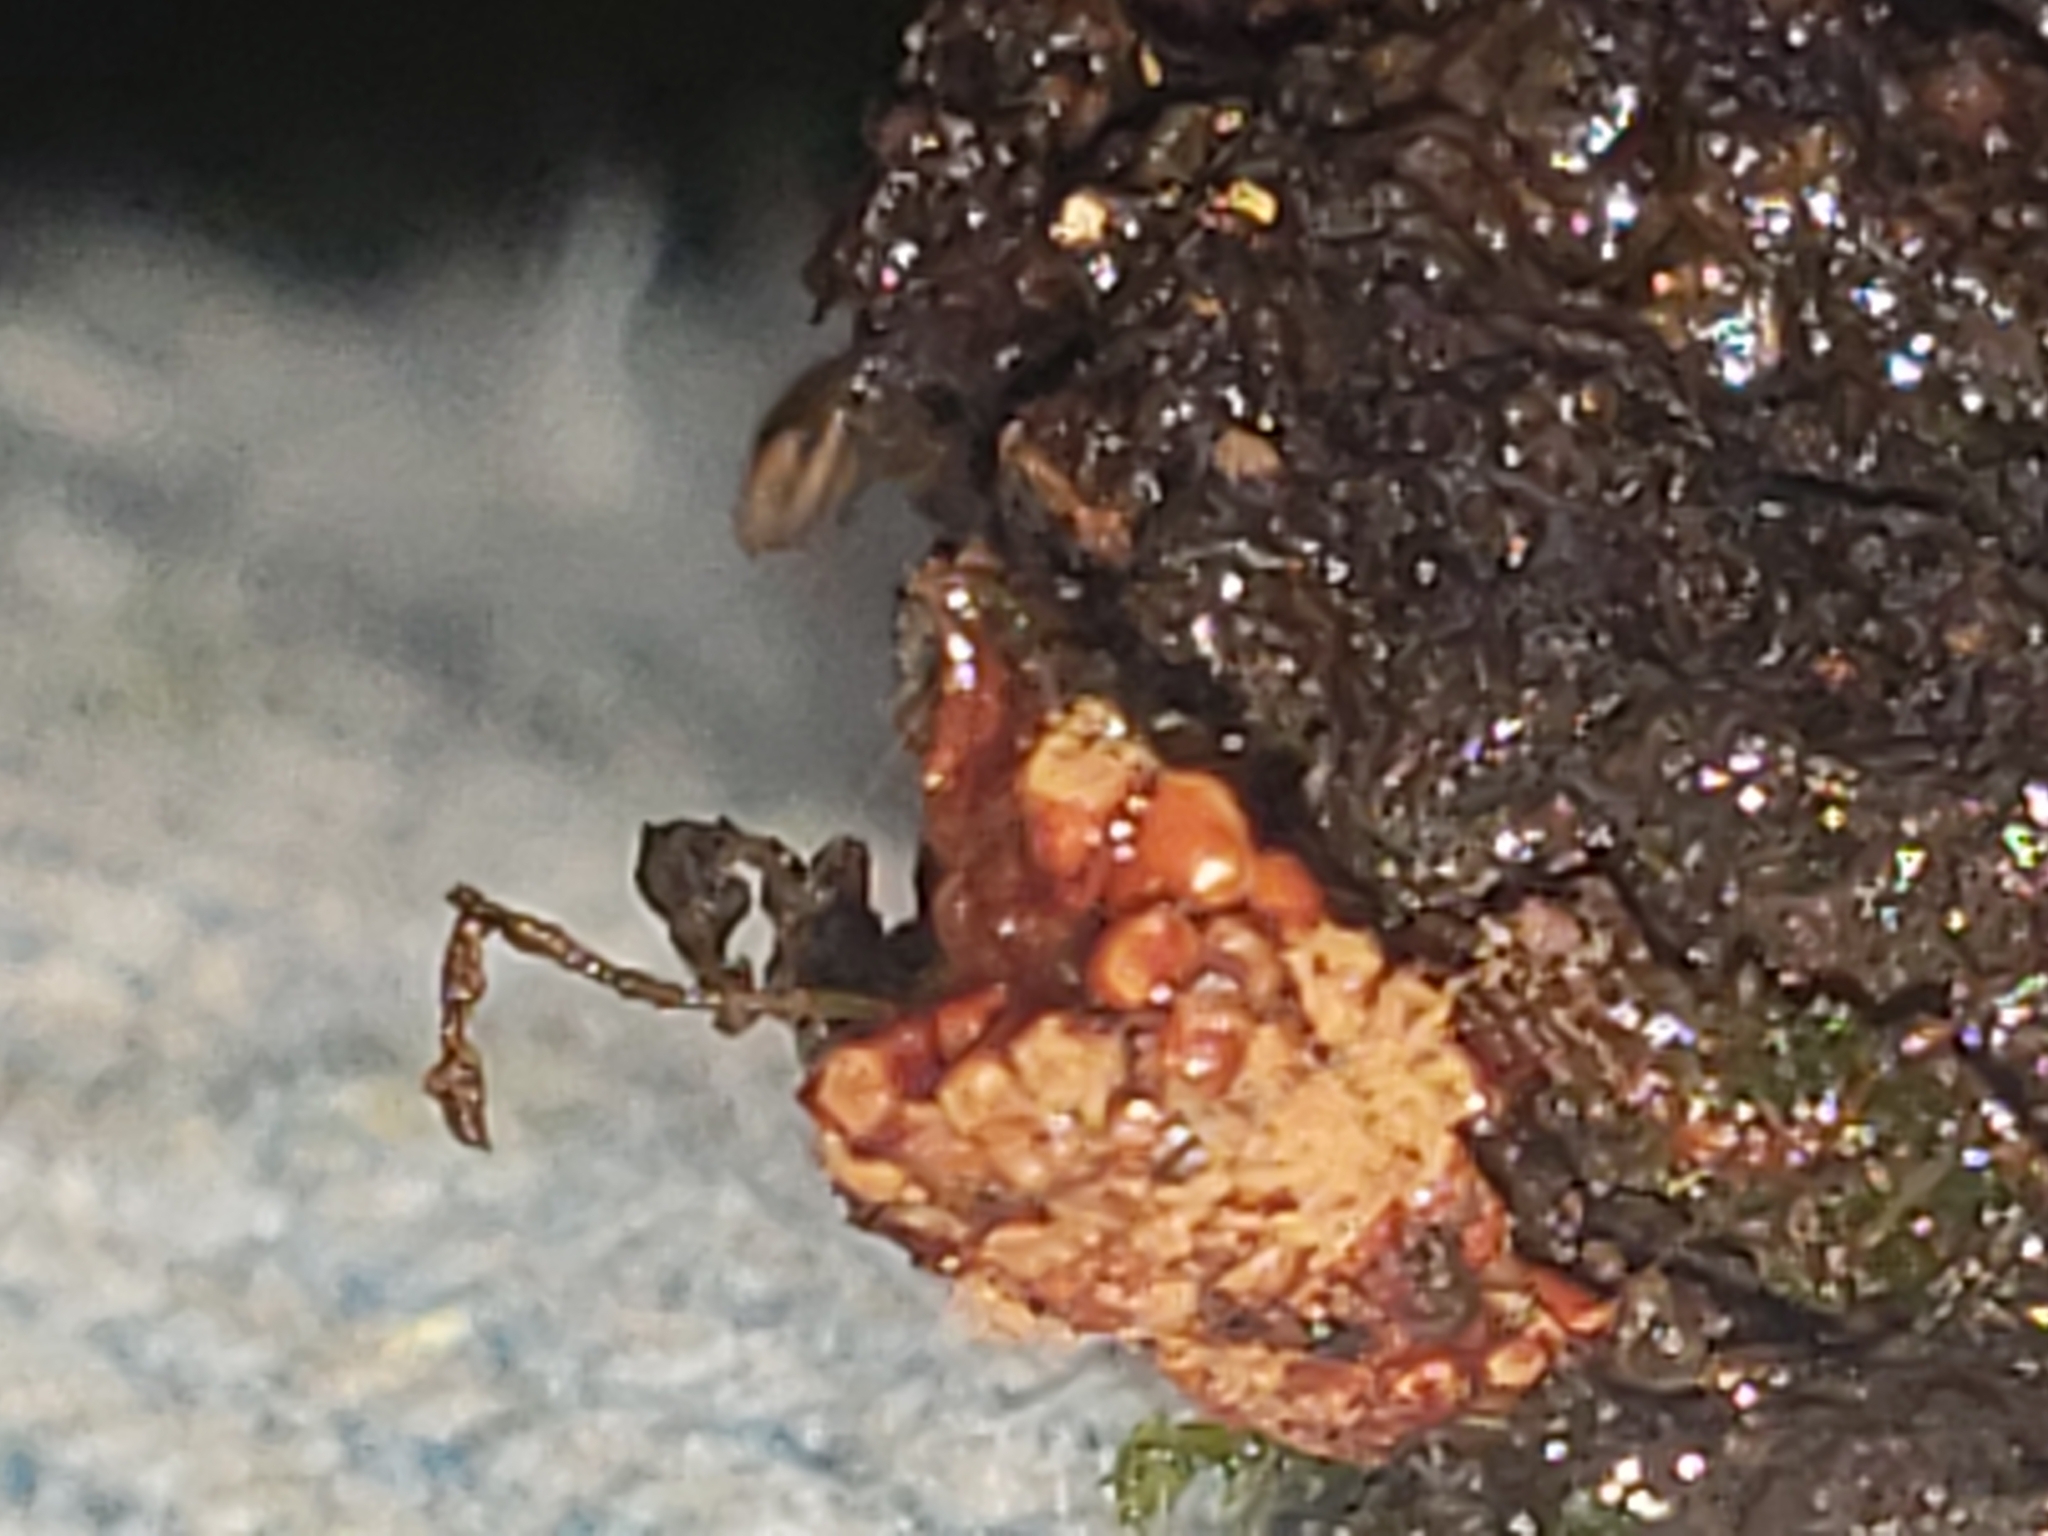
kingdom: Protozoa
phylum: Mycetozoa
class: Myxomycetes
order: Trichiales
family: Trichiaceae
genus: Metatrichia
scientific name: Metatrichia vesparia
